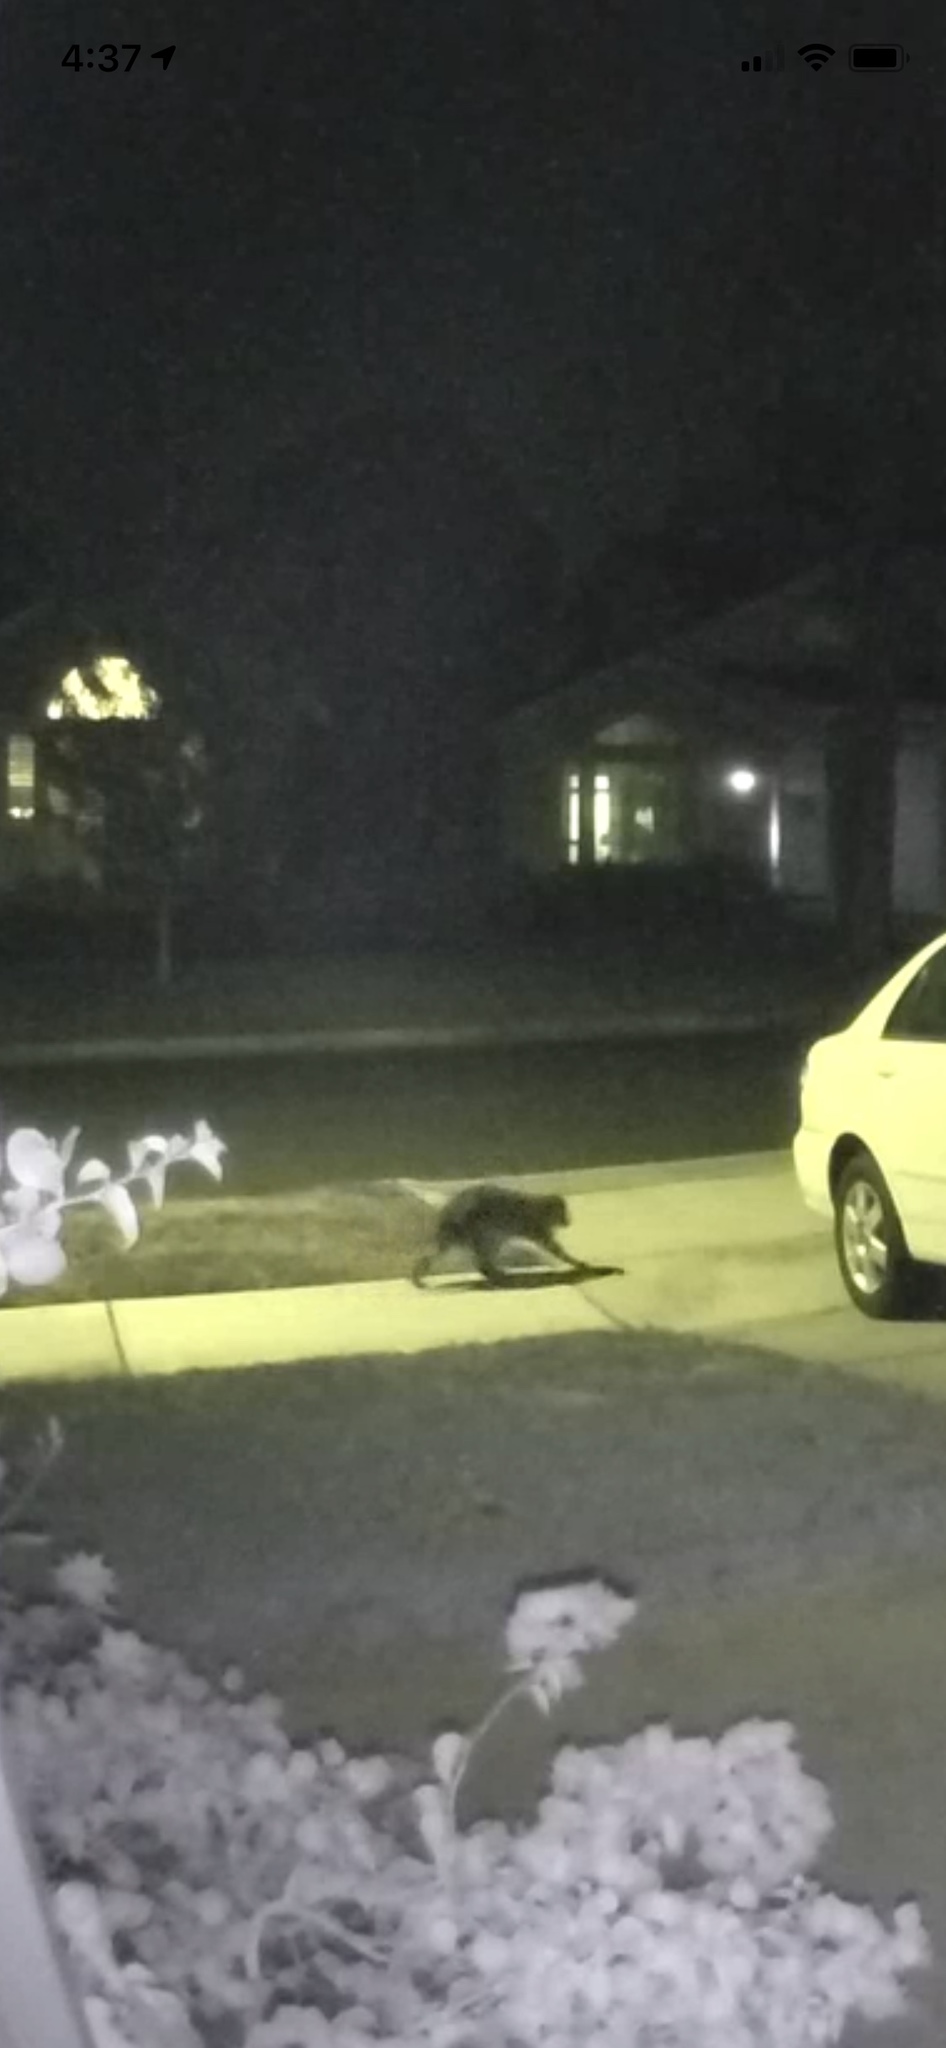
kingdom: Animalia
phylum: Chordata
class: Mammalia
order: Carnivora
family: Procyonidae
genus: Procyon
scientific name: Procyon lotor
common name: Raccoon
